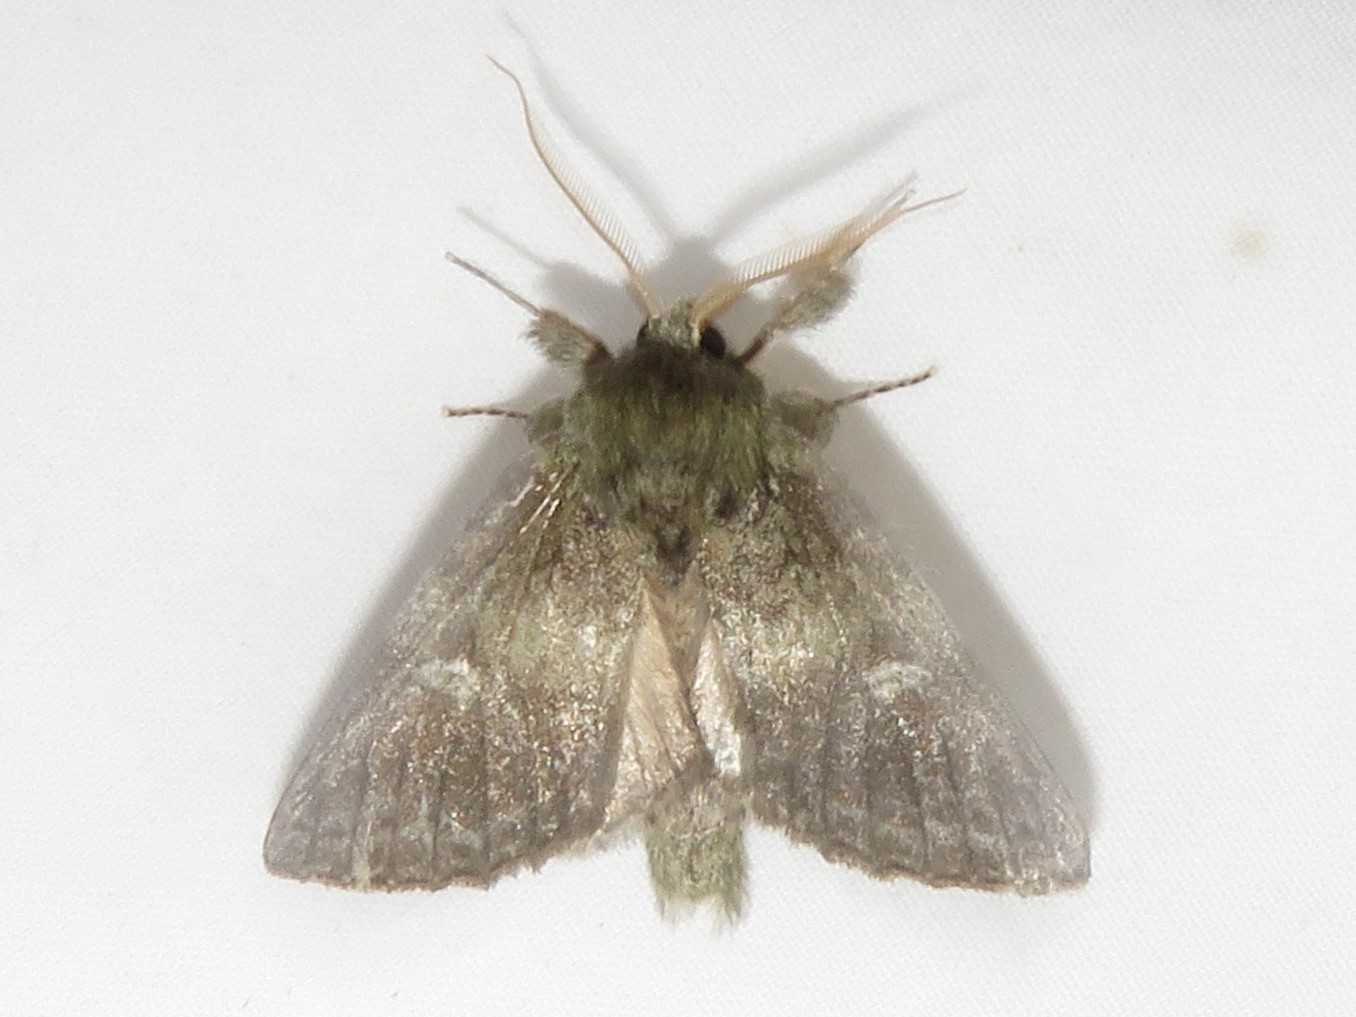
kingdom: Animalia
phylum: Arthropoda
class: Insecta
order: Lepidoptera
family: Notodontidae
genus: Disphragis
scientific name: Disphragis Cecrita guttivitta
